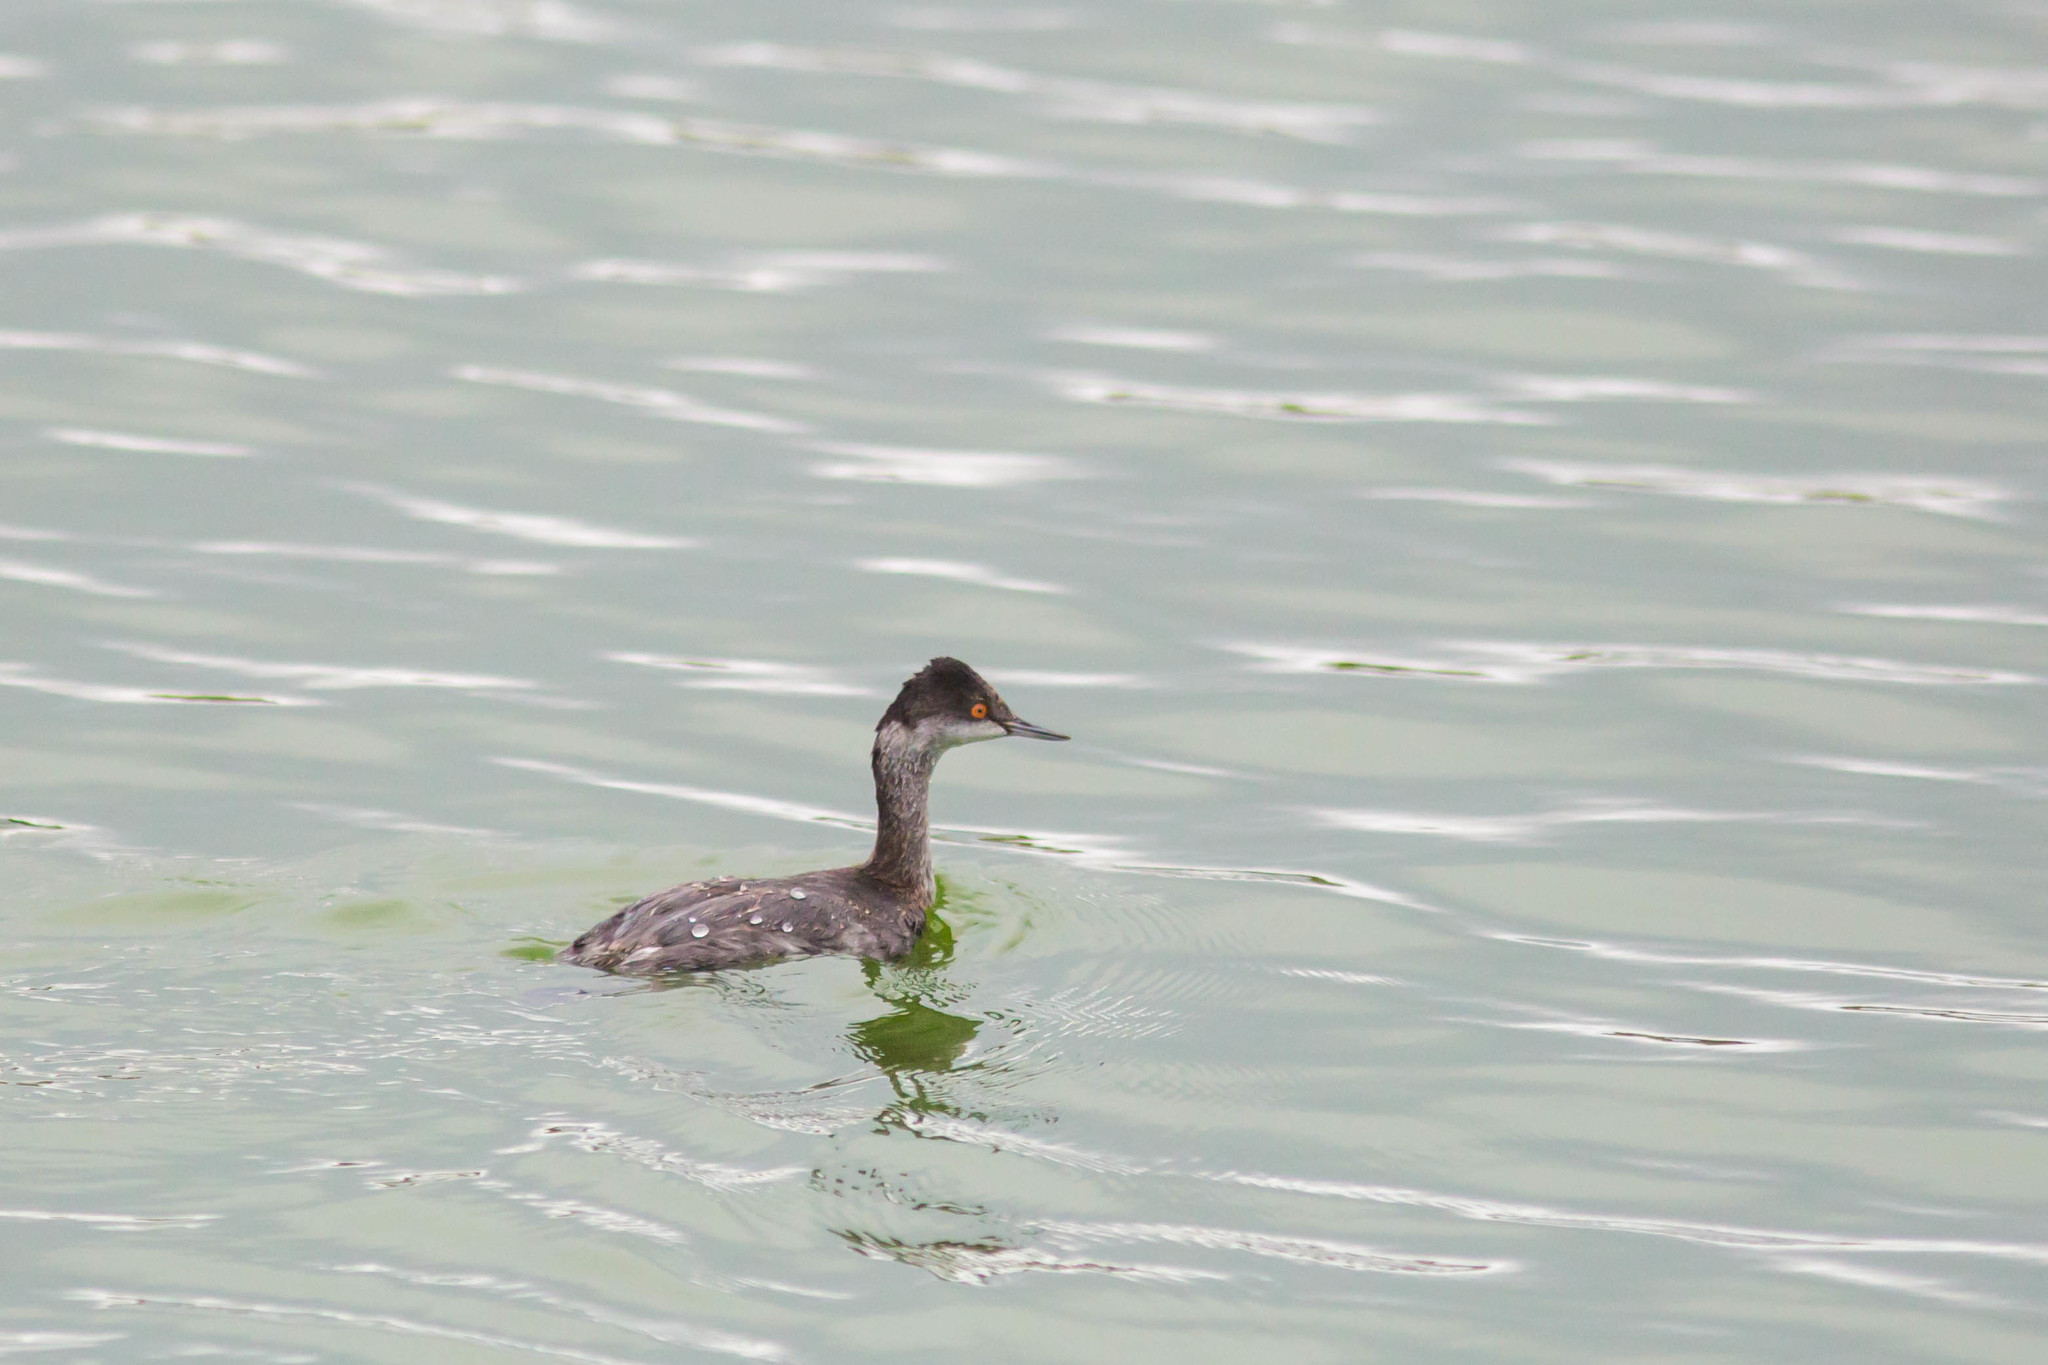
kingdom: Animalia
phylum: Chordata
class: Aves
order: Podicipediformes
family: Podicipedidae
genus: Podiceps
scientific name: Podiceps nigricollis
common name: Black-necked grebe
